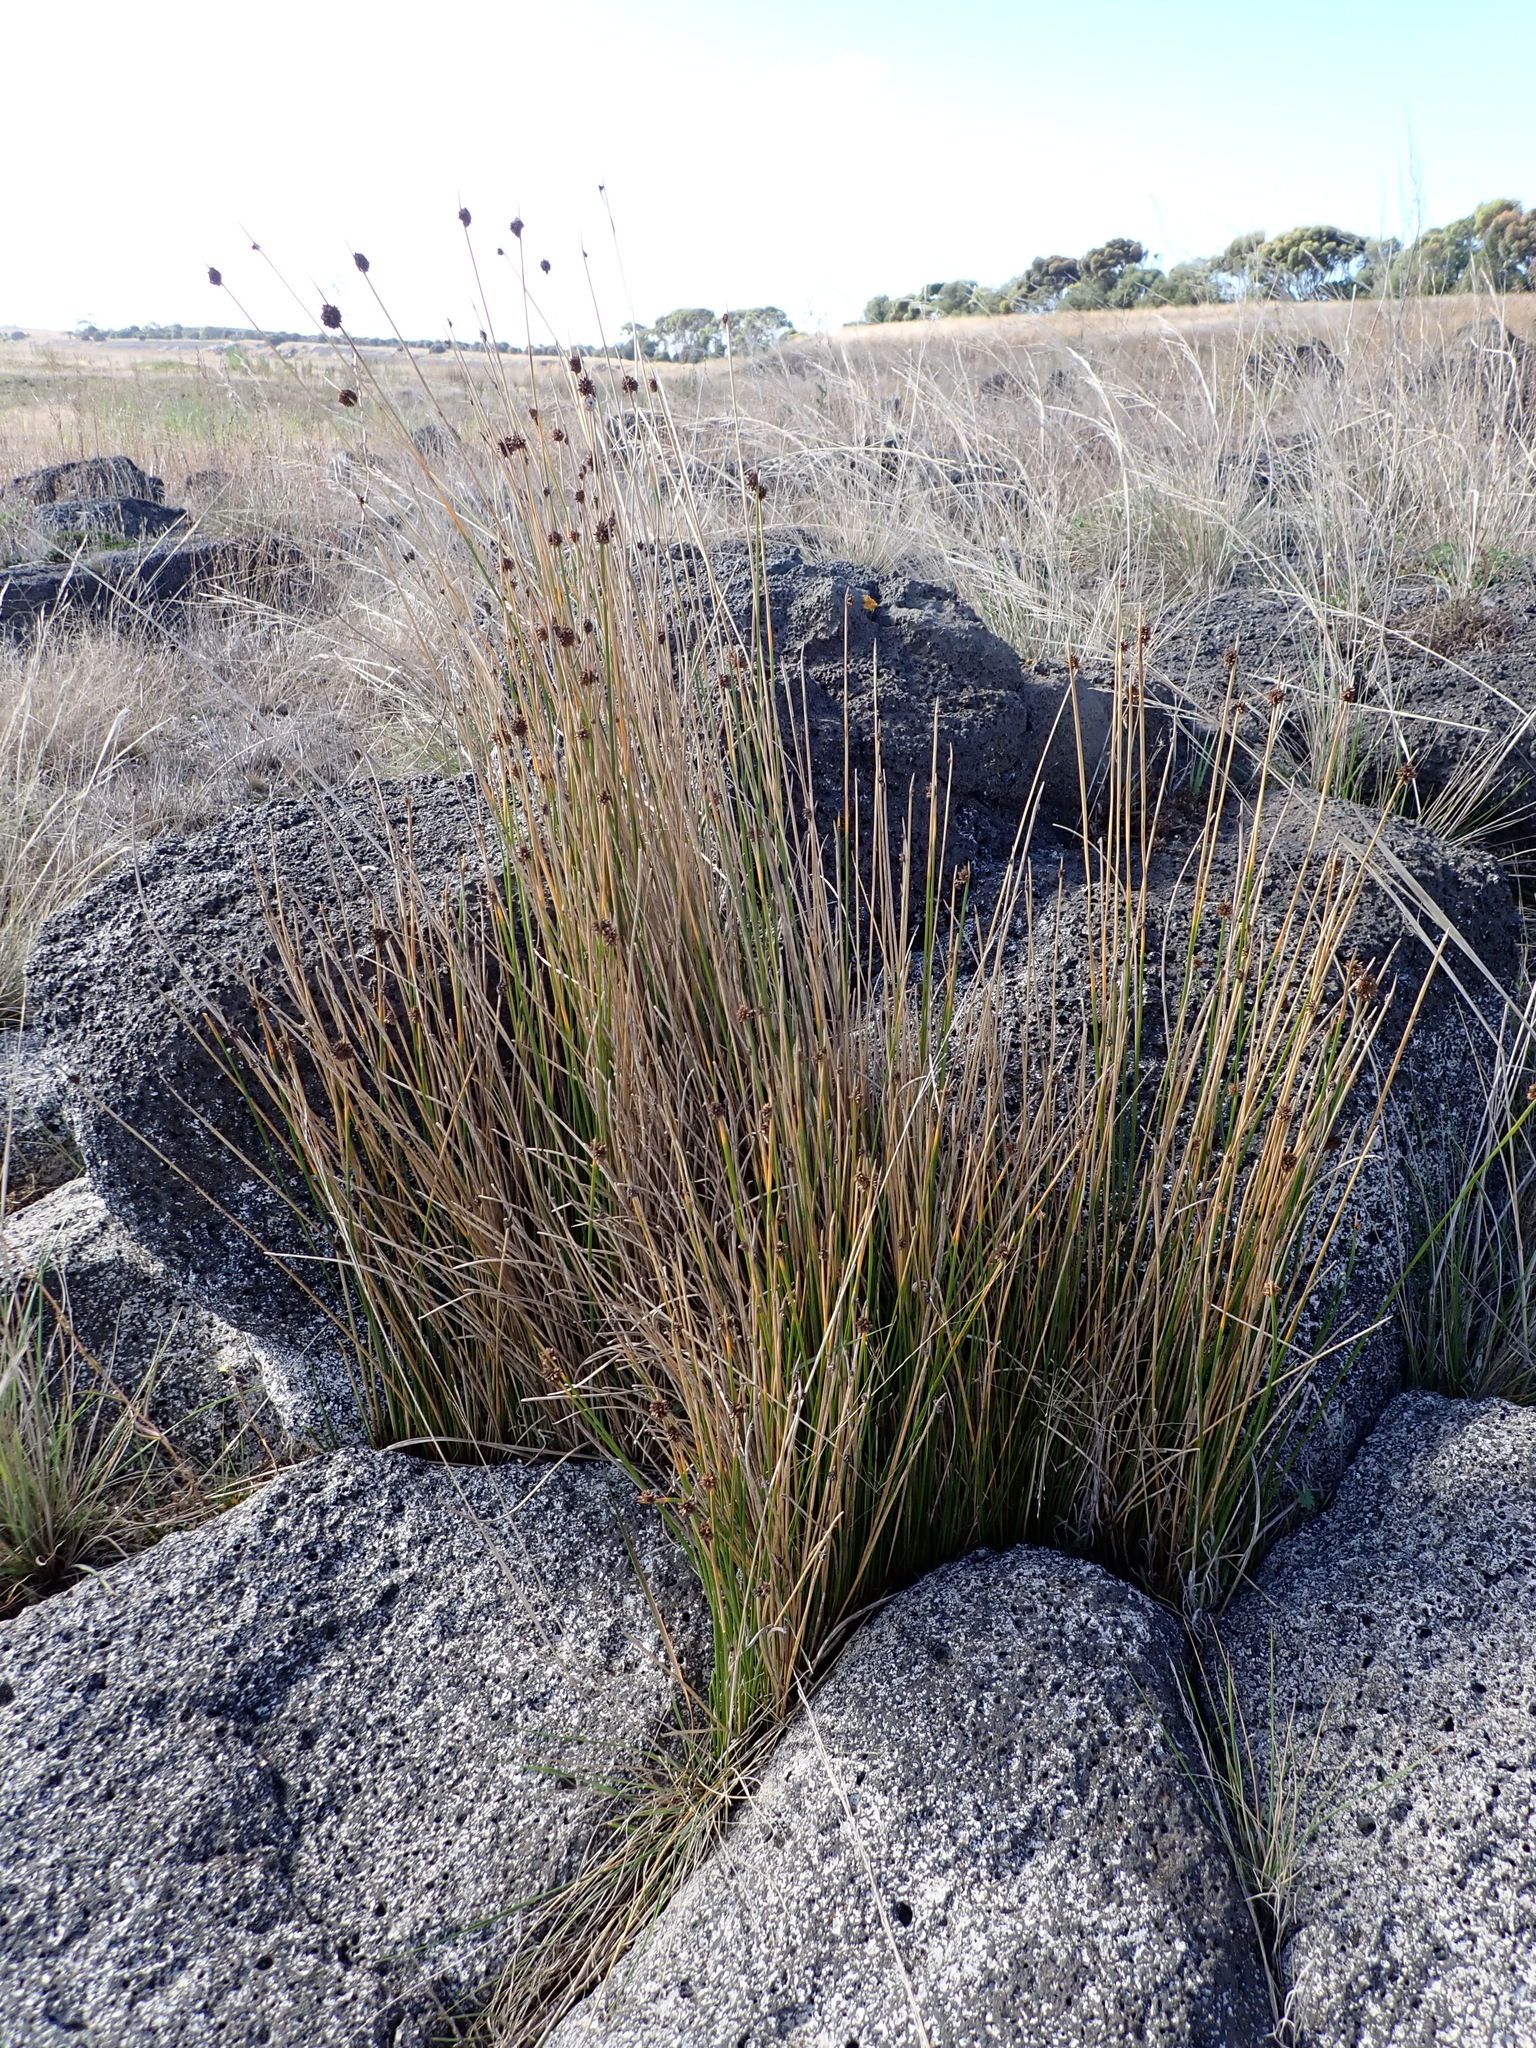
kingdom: Plantae
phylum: Tracheophyta
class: Liliopsida
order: Poales
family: Cyperaceae
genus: Ficinia
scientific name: Ficinia nodosa
